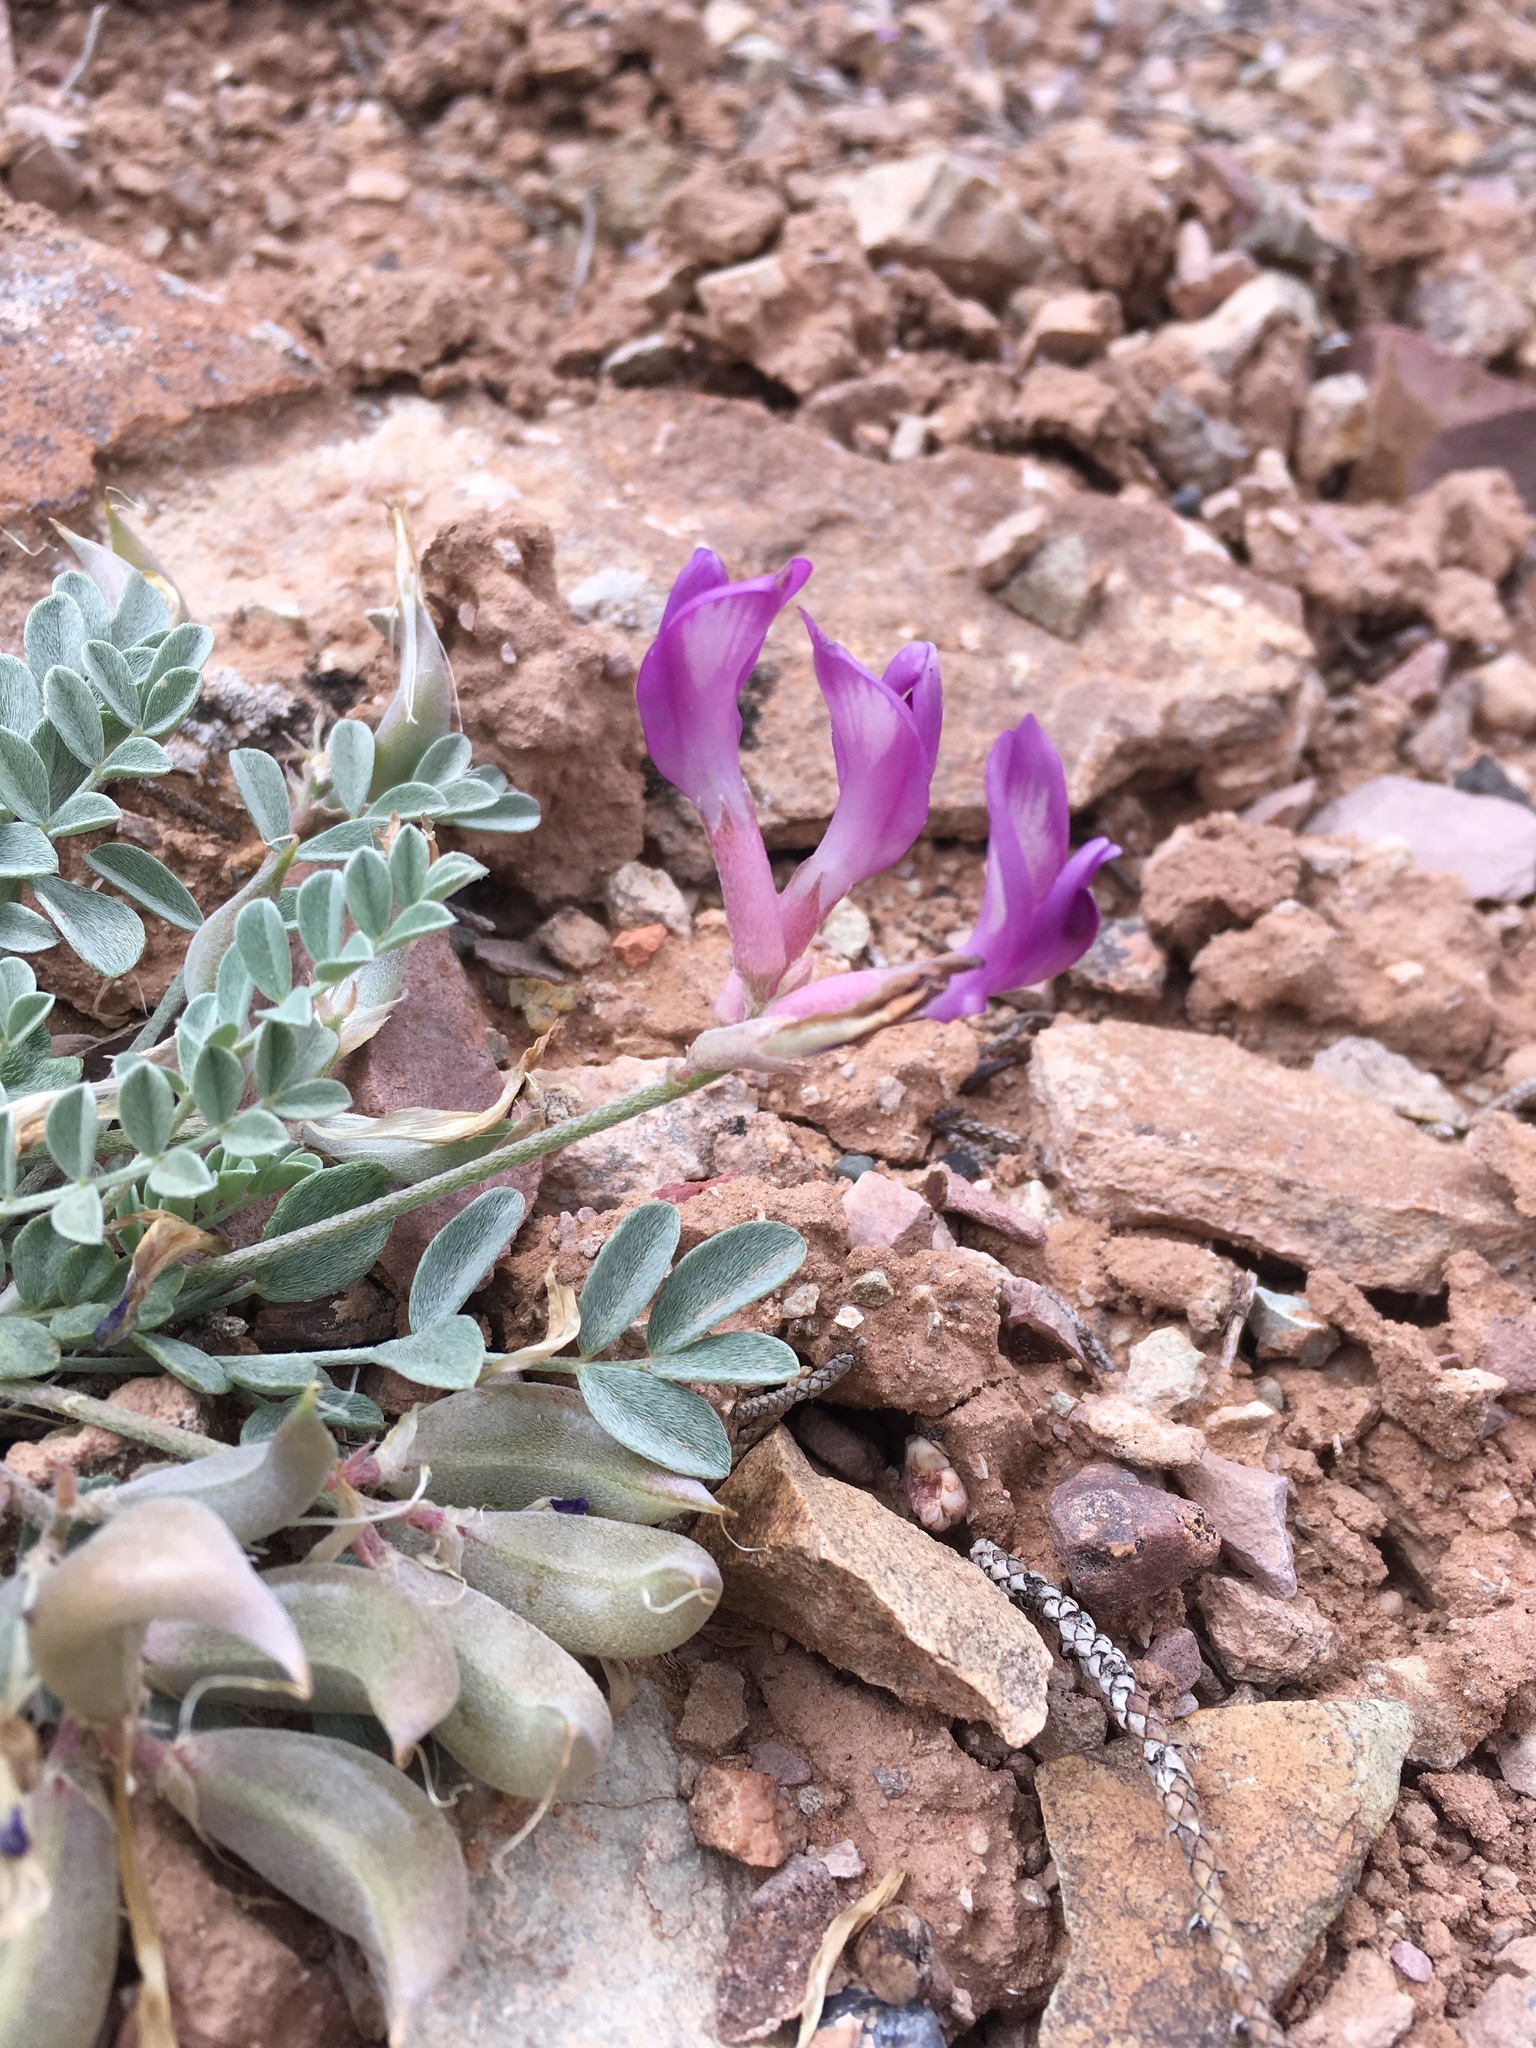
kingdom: Plantae
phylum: Tracheophyta
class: Magnoliopsida
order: Fabales
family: Fabaceae
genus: Astragalus
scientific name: Astragalus amphioxys
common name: Crescent milk-vetch
